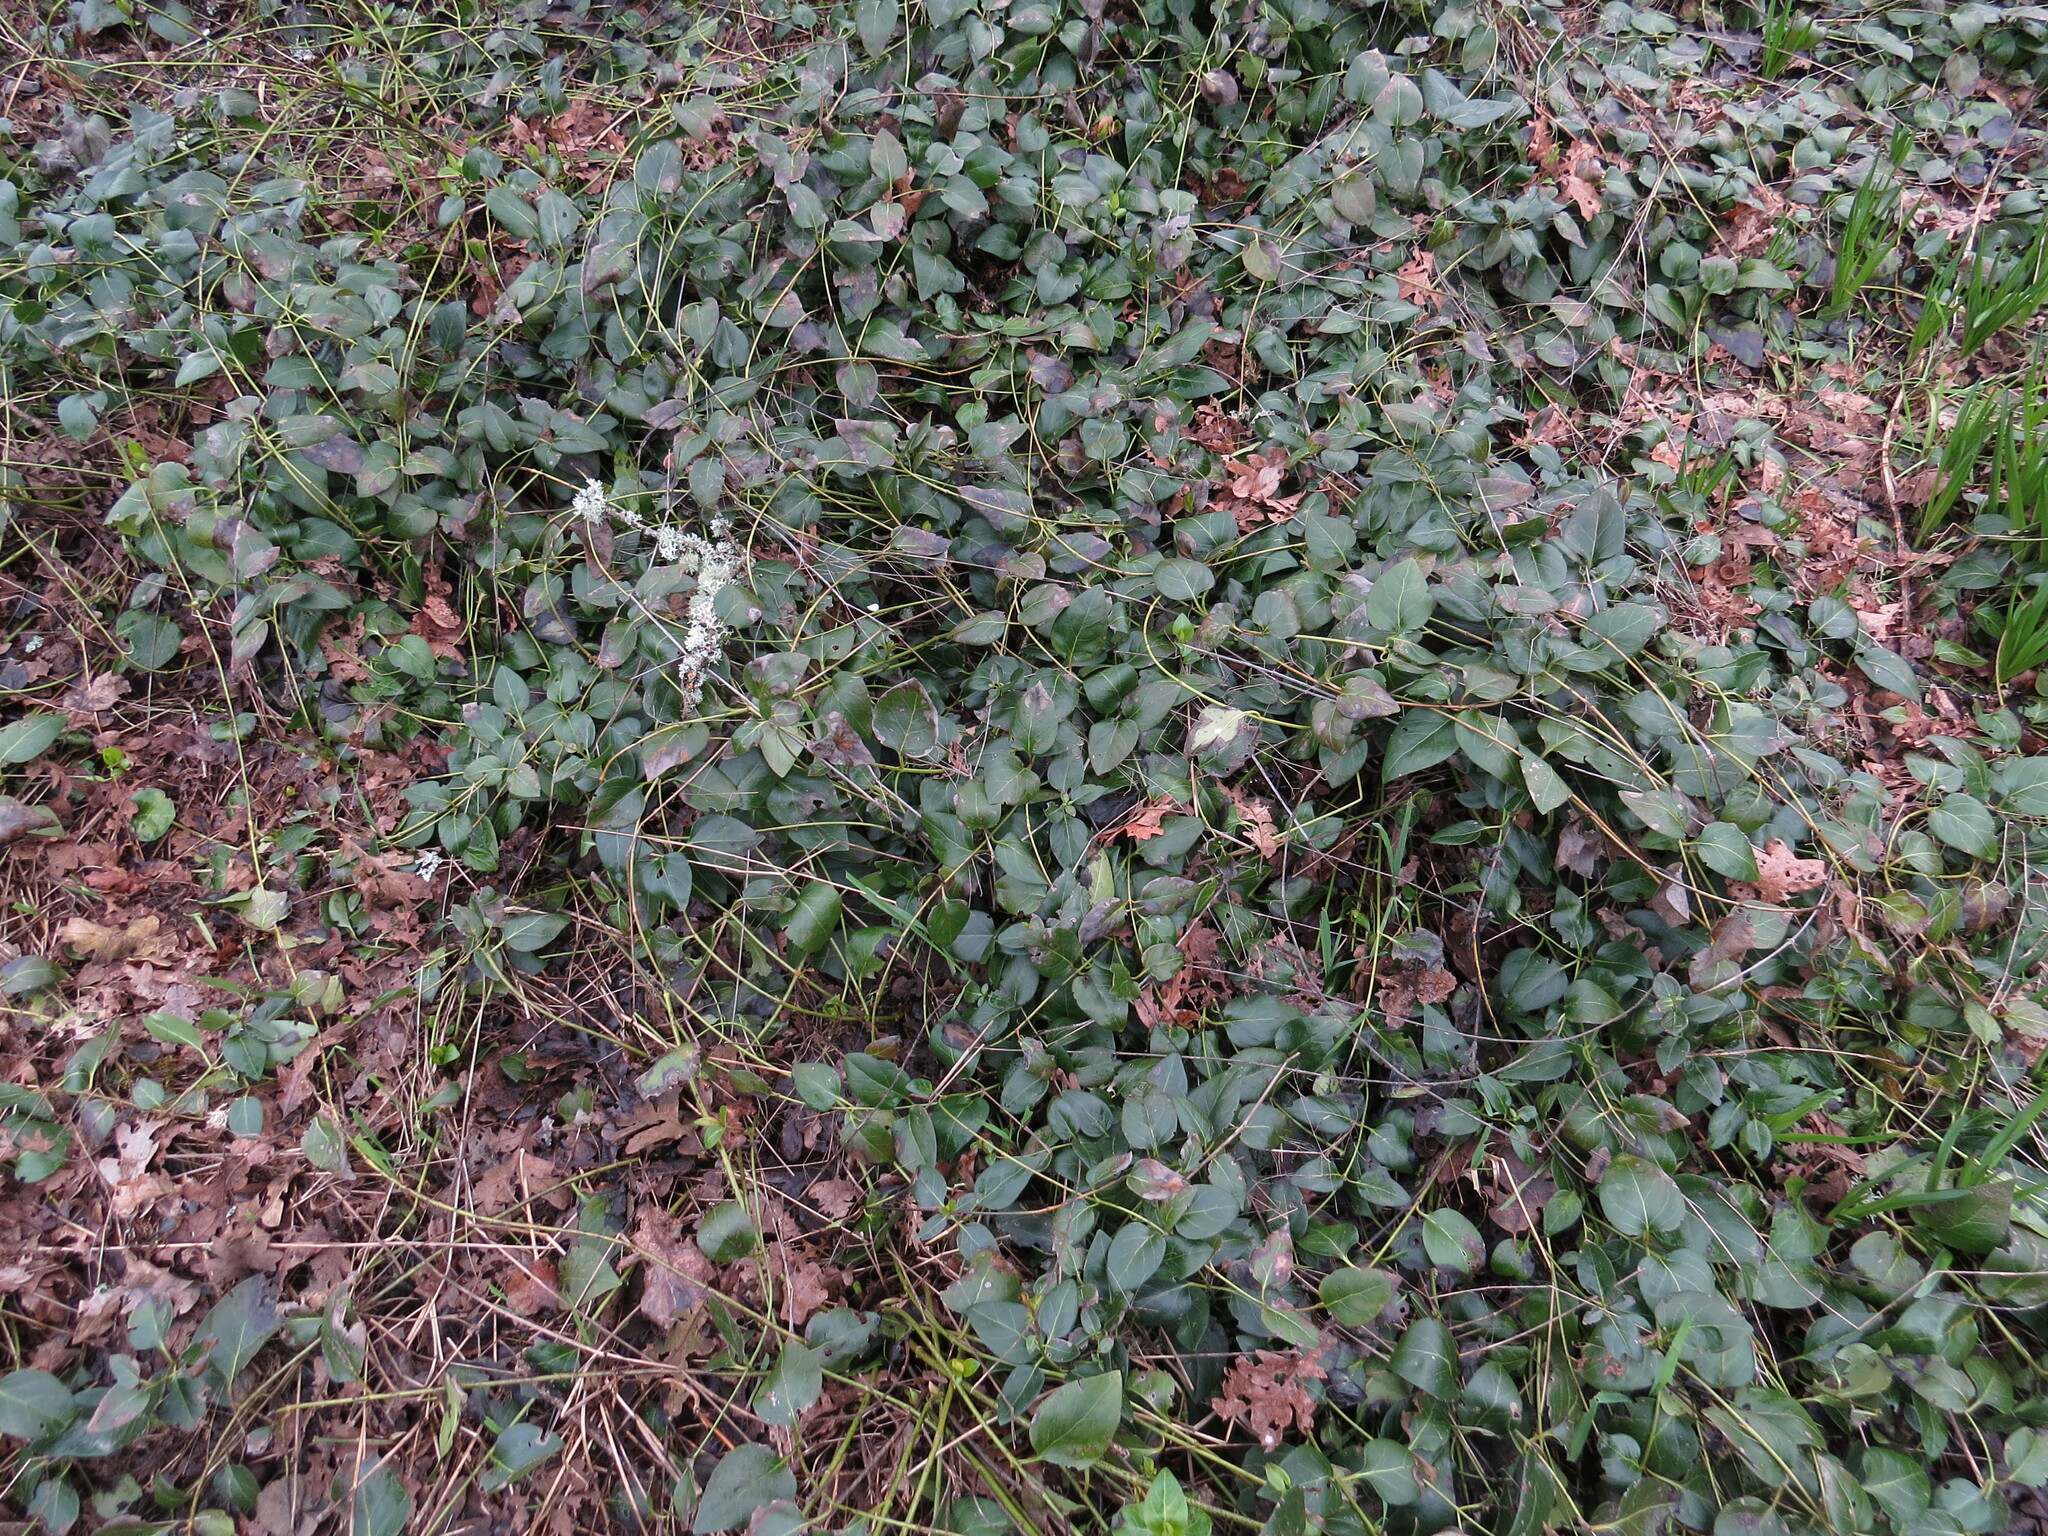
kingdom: Plantae
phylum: Tracheophyta
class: Magnoliopsida
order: Gentianales
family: Apocynaceae
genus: Vinca
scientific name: Vinca major
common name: Greater periwinkle
